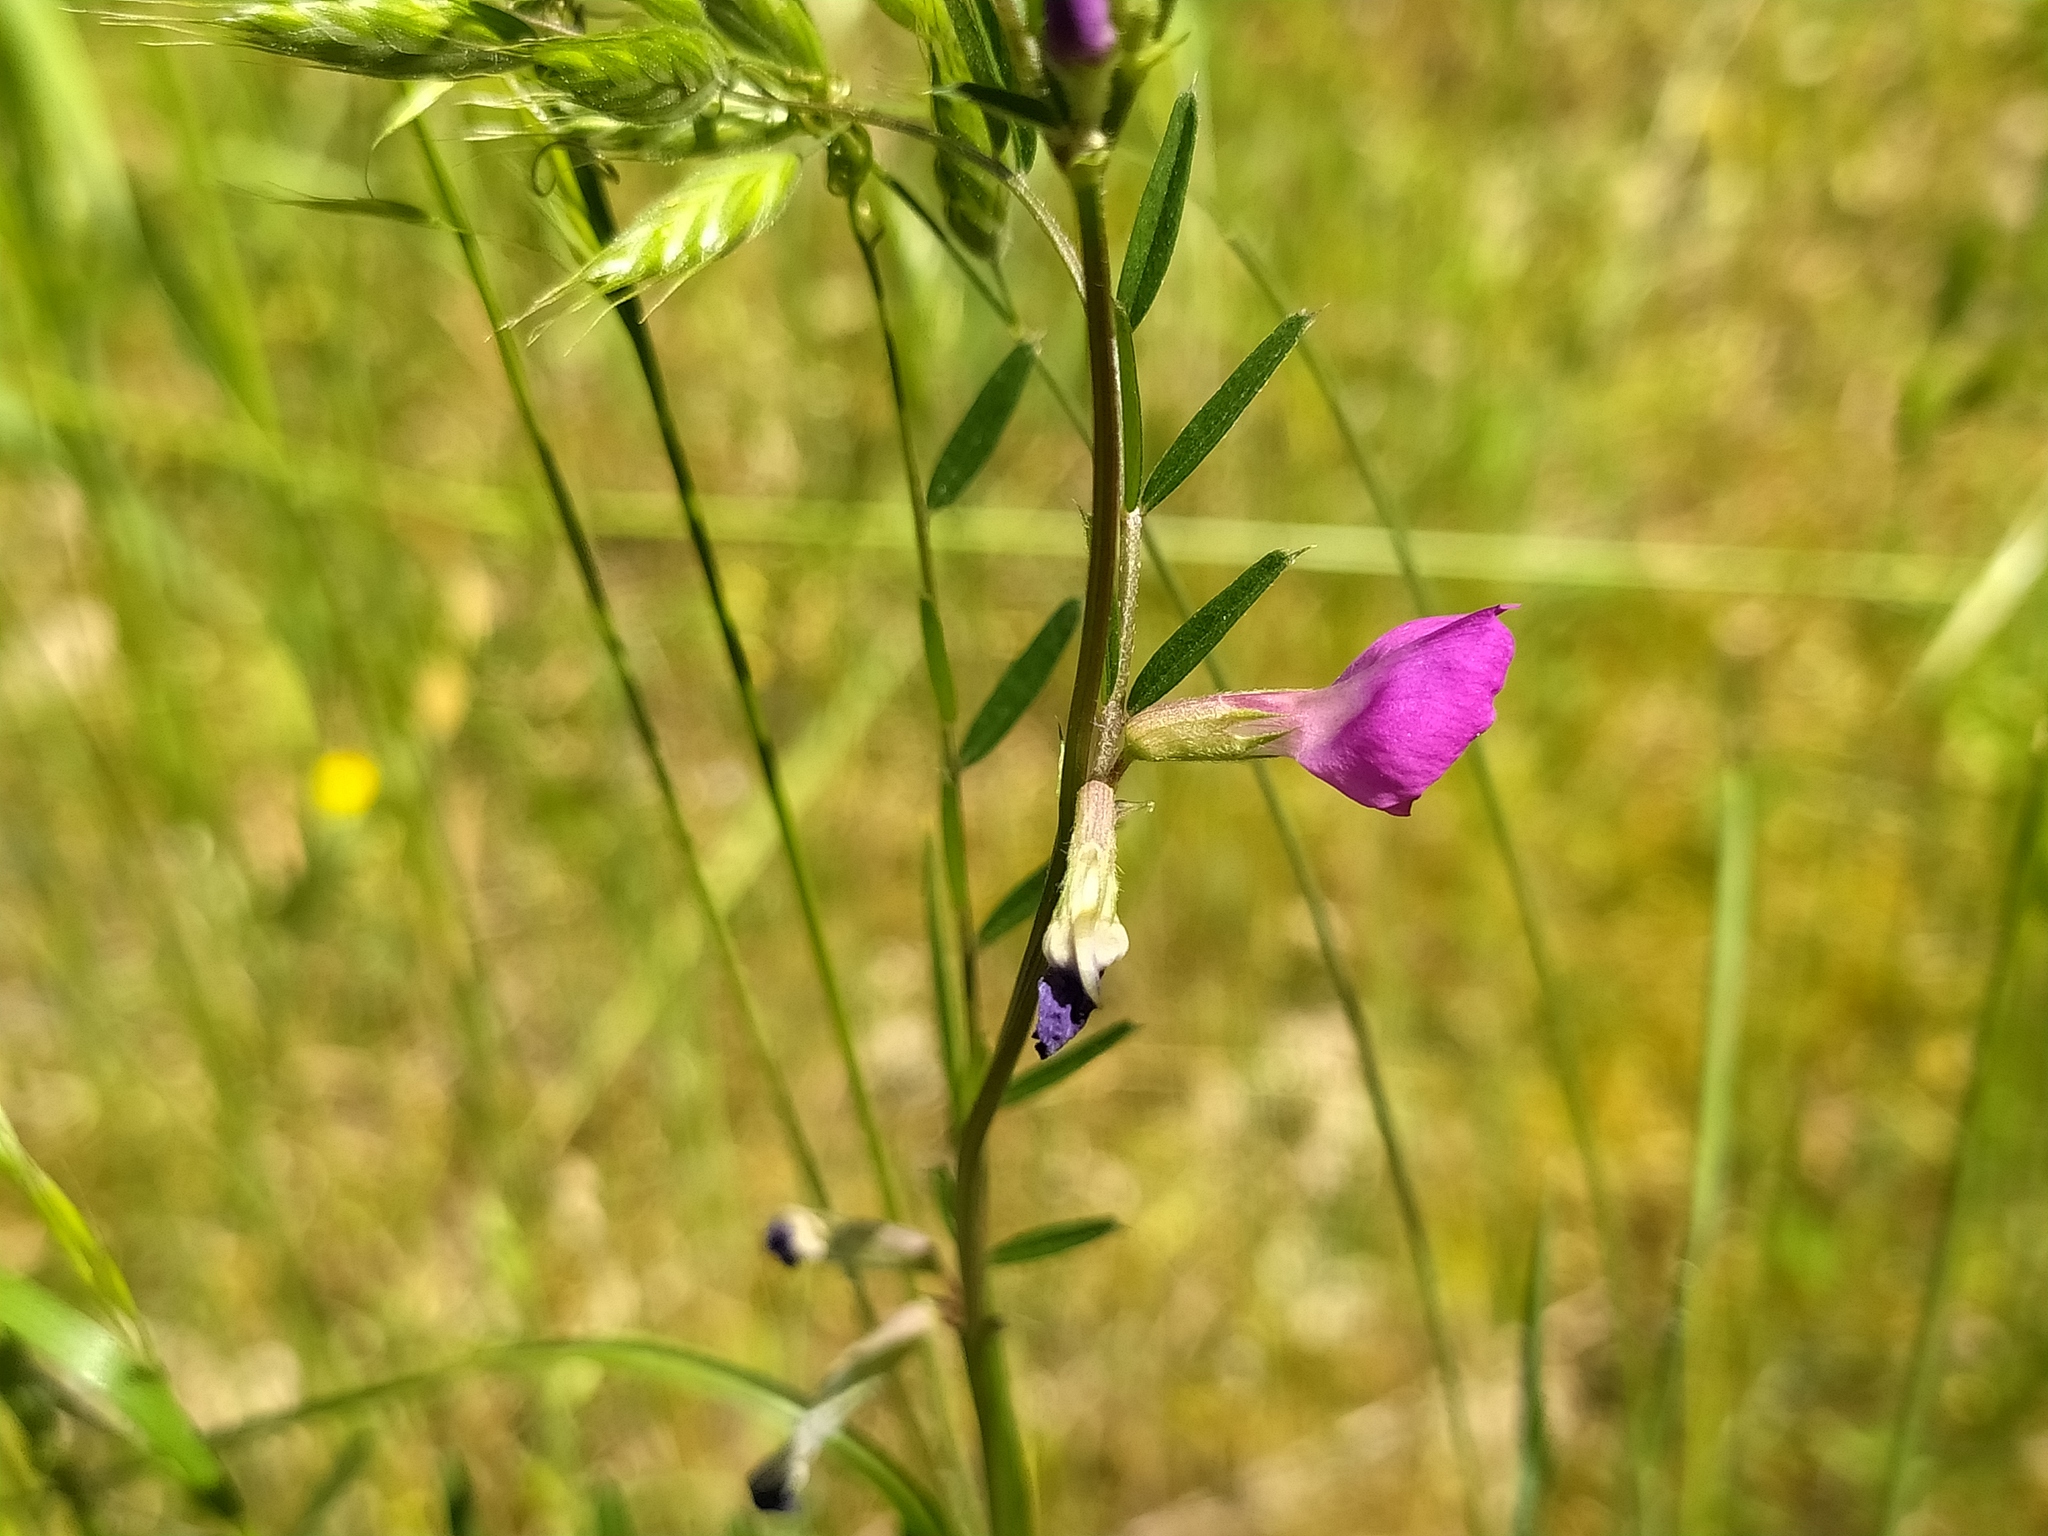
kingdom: Plantae
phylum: Tracheophyta
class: Magnoliopsida
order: Fabales
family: Fabaceae
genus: Vicia
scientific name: Vicia sativa
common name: Garden vetch
